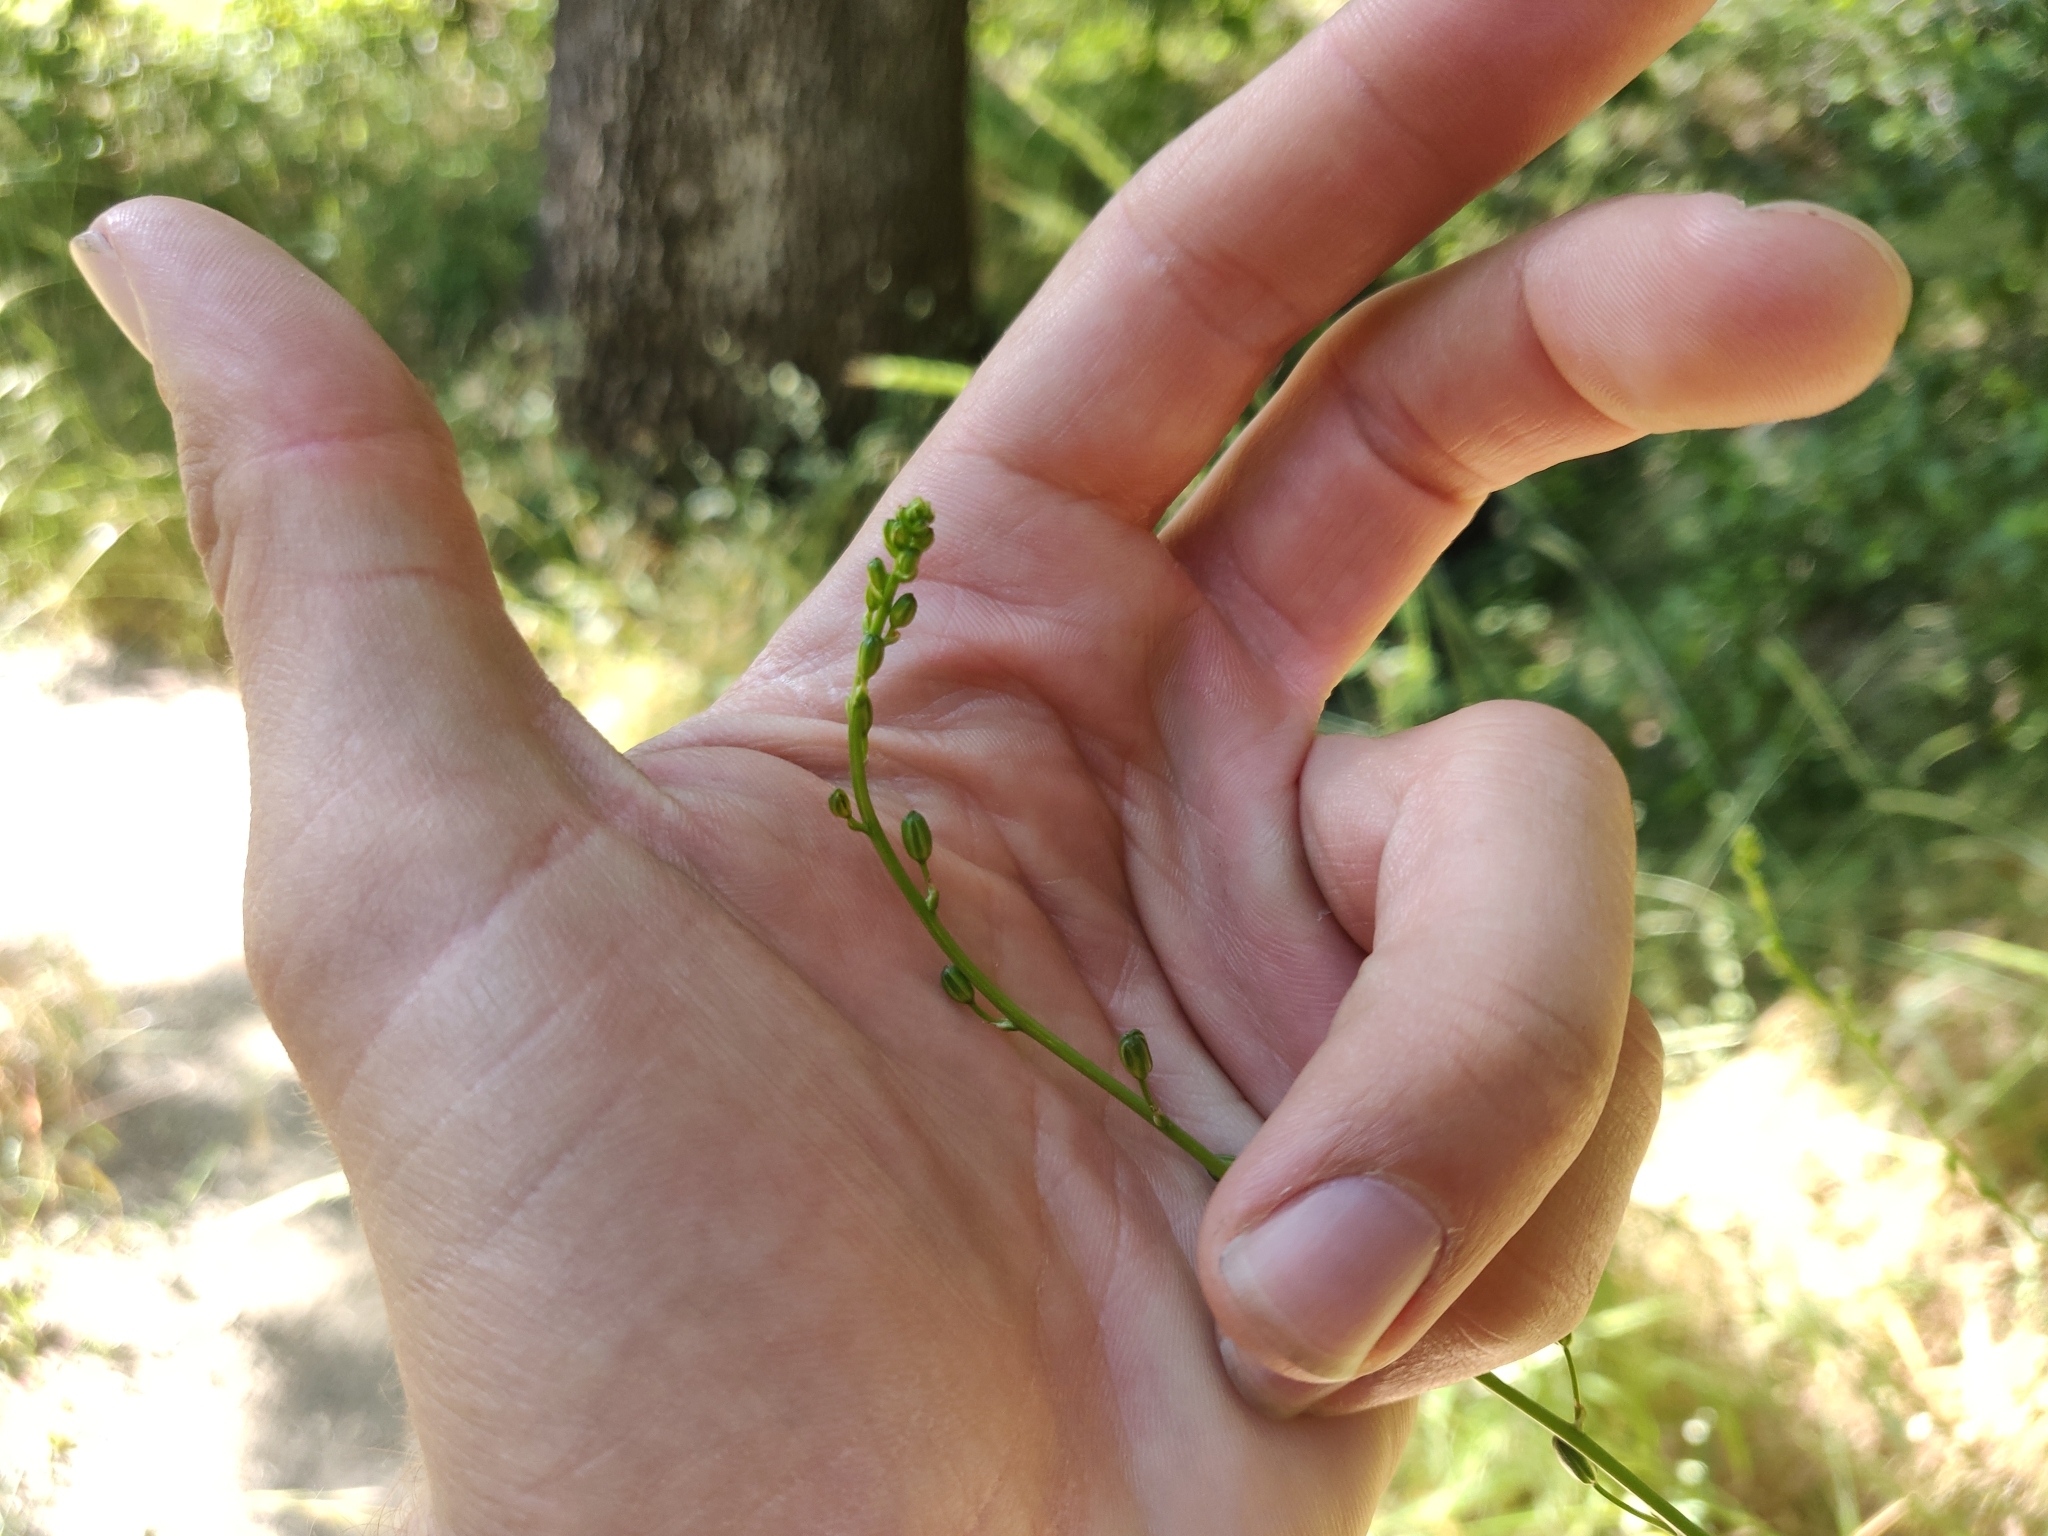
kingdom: Plantae
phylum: Tracheophyta
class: Liliopsida
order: Asparagales
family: Asparagaceae
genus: Chlorogalum
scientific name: Chlorogalum pomeridianum
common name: Amole
